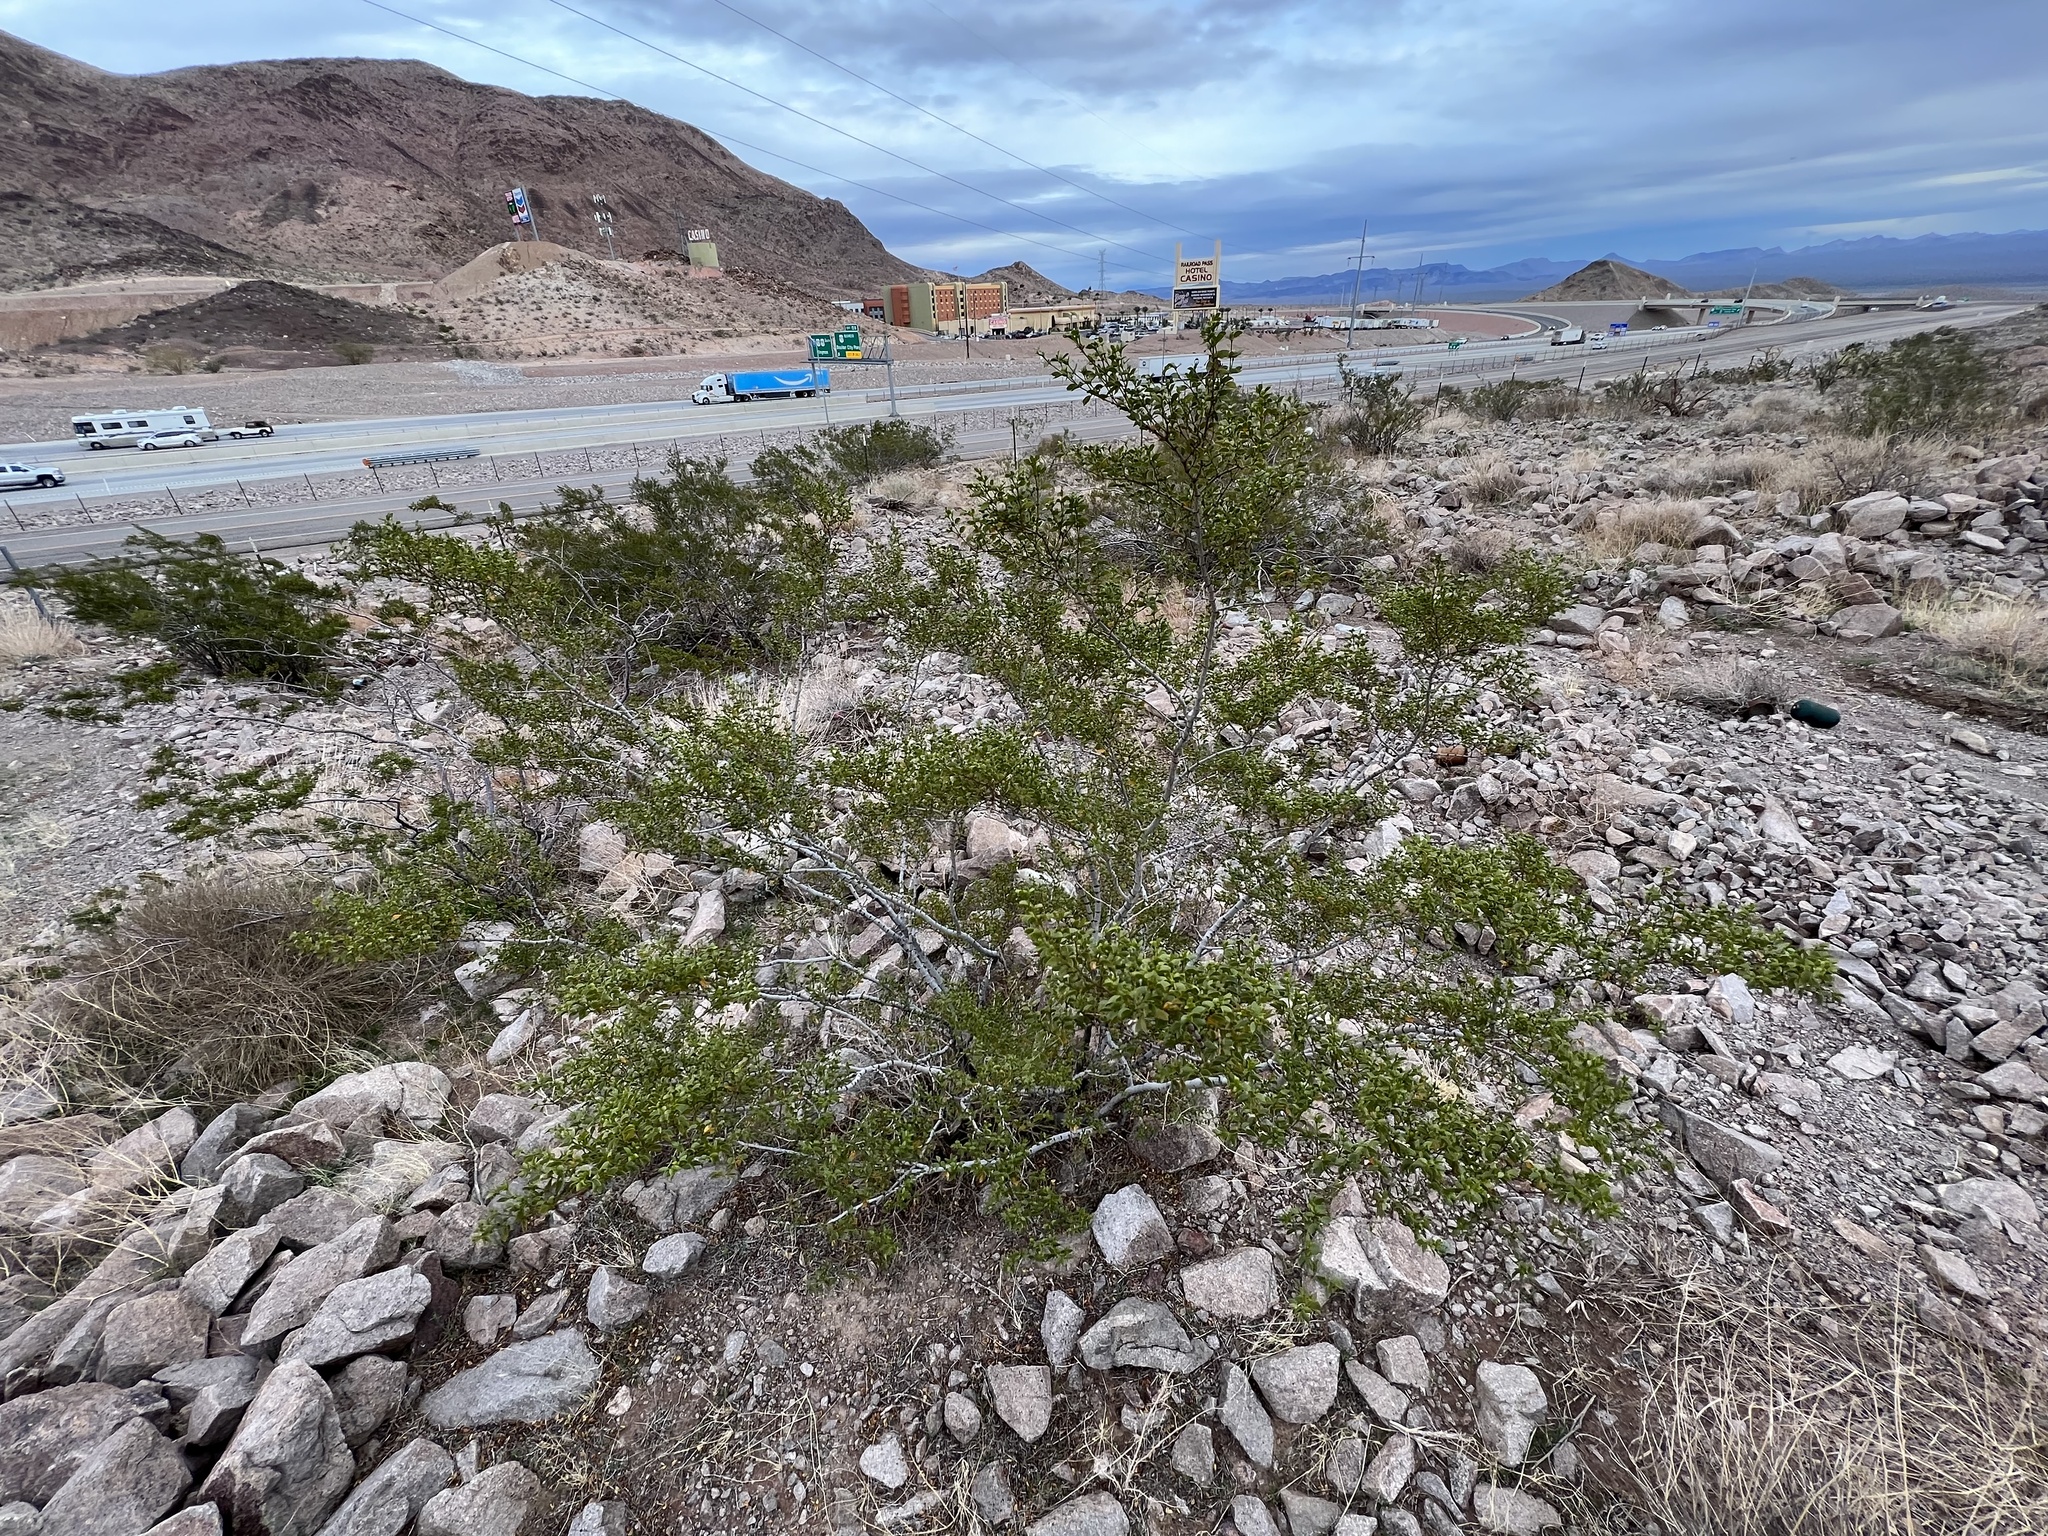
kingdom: Plantae
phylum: Tracheophyta
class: Magnoliopsida
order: Zygophyllales
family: Zygophyllaceae
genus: Larrea
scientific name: Larrea tridentata
